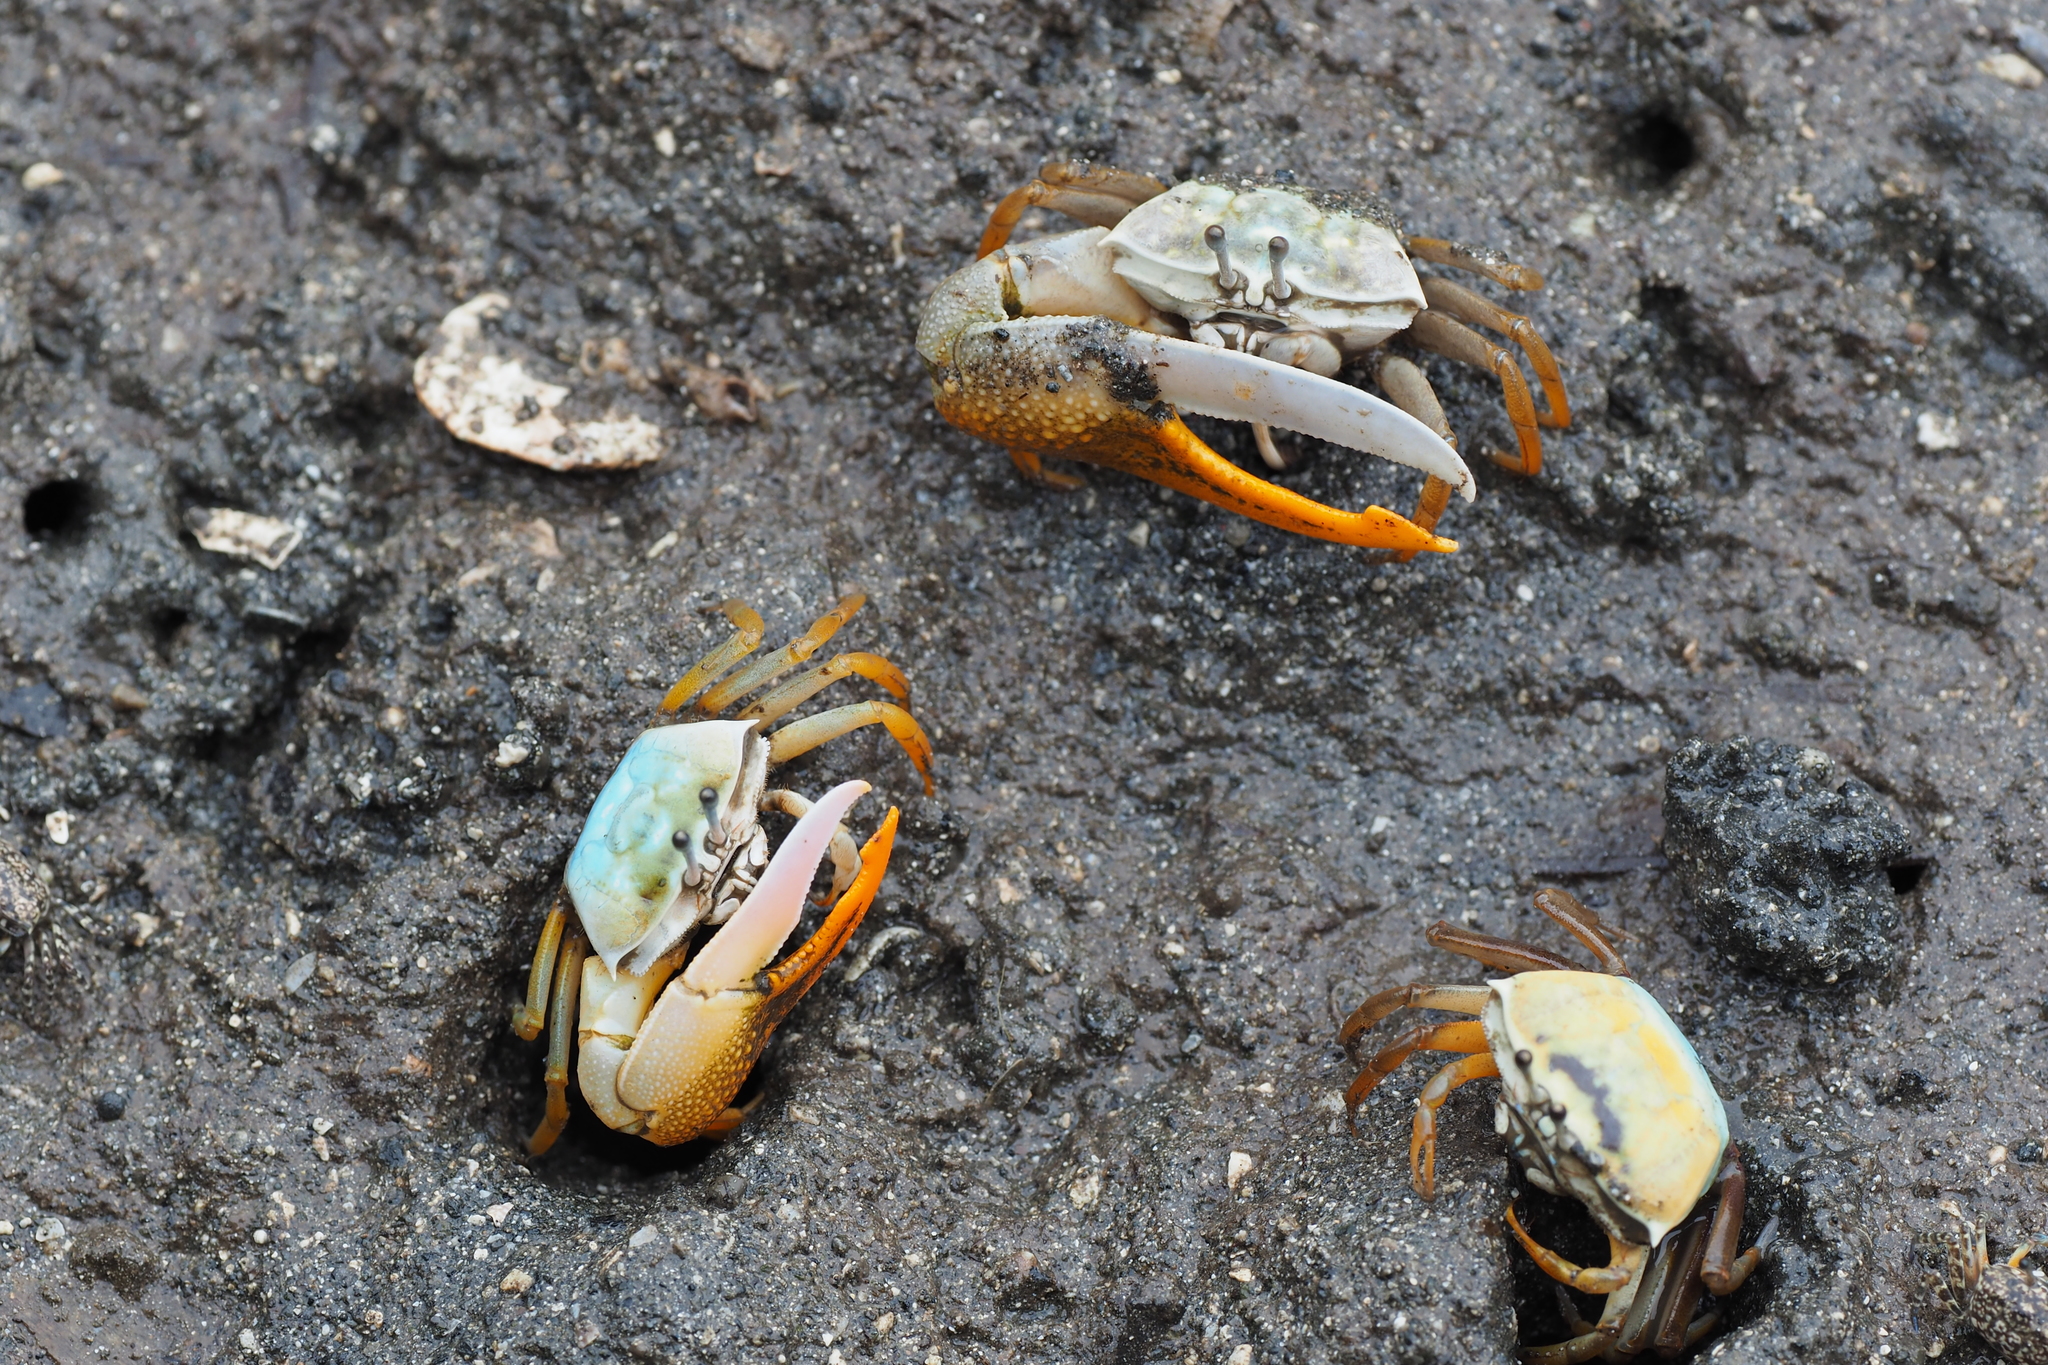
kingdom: Animalia
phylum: Arthropoda
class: Malacostraca
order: Decapoda
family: Ocypodidae
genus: Gelasimus
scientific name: Gelasimus jocelynae
